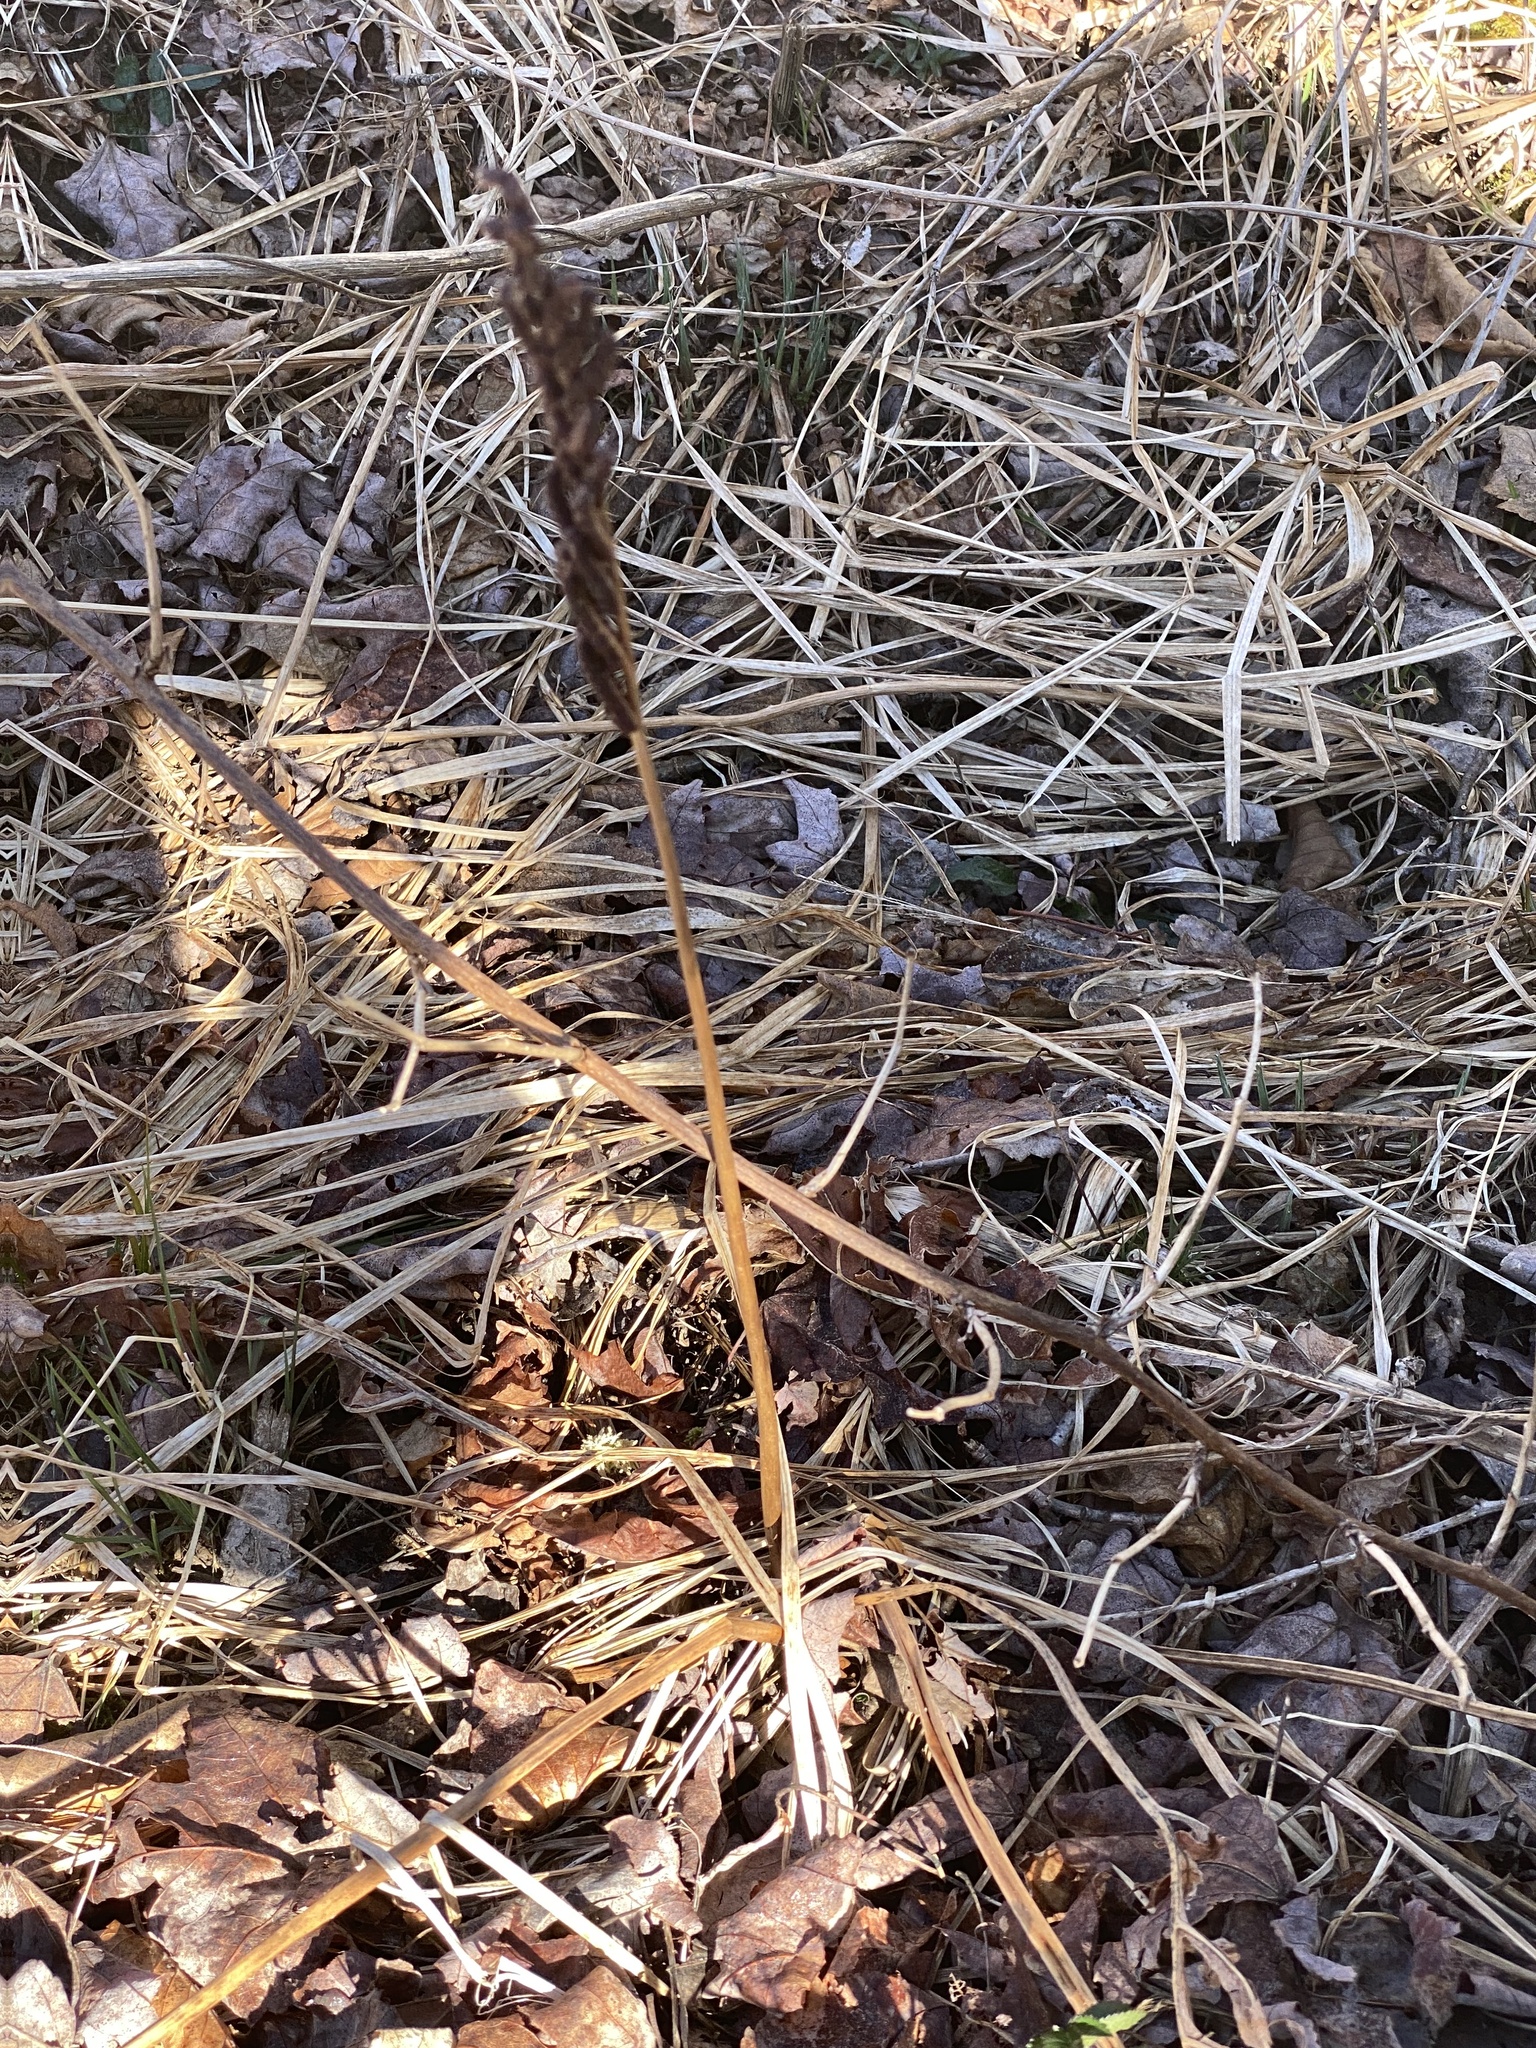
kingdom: Plantae
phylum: Tracheophyta
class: Polypodiopsida
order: Polypodiales
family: Onocleaceae
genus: Onoclea
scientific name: Onoclea sensibilis
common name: Sensitive fern
